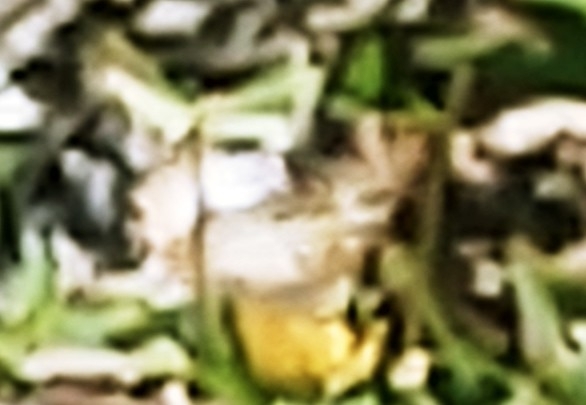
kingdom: Animalia
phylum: Arthropoda
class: Insecta
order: Lepidoptera
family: Nymphalidae
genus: Anartia
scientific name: Anartia jatrophae
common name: White peacock
